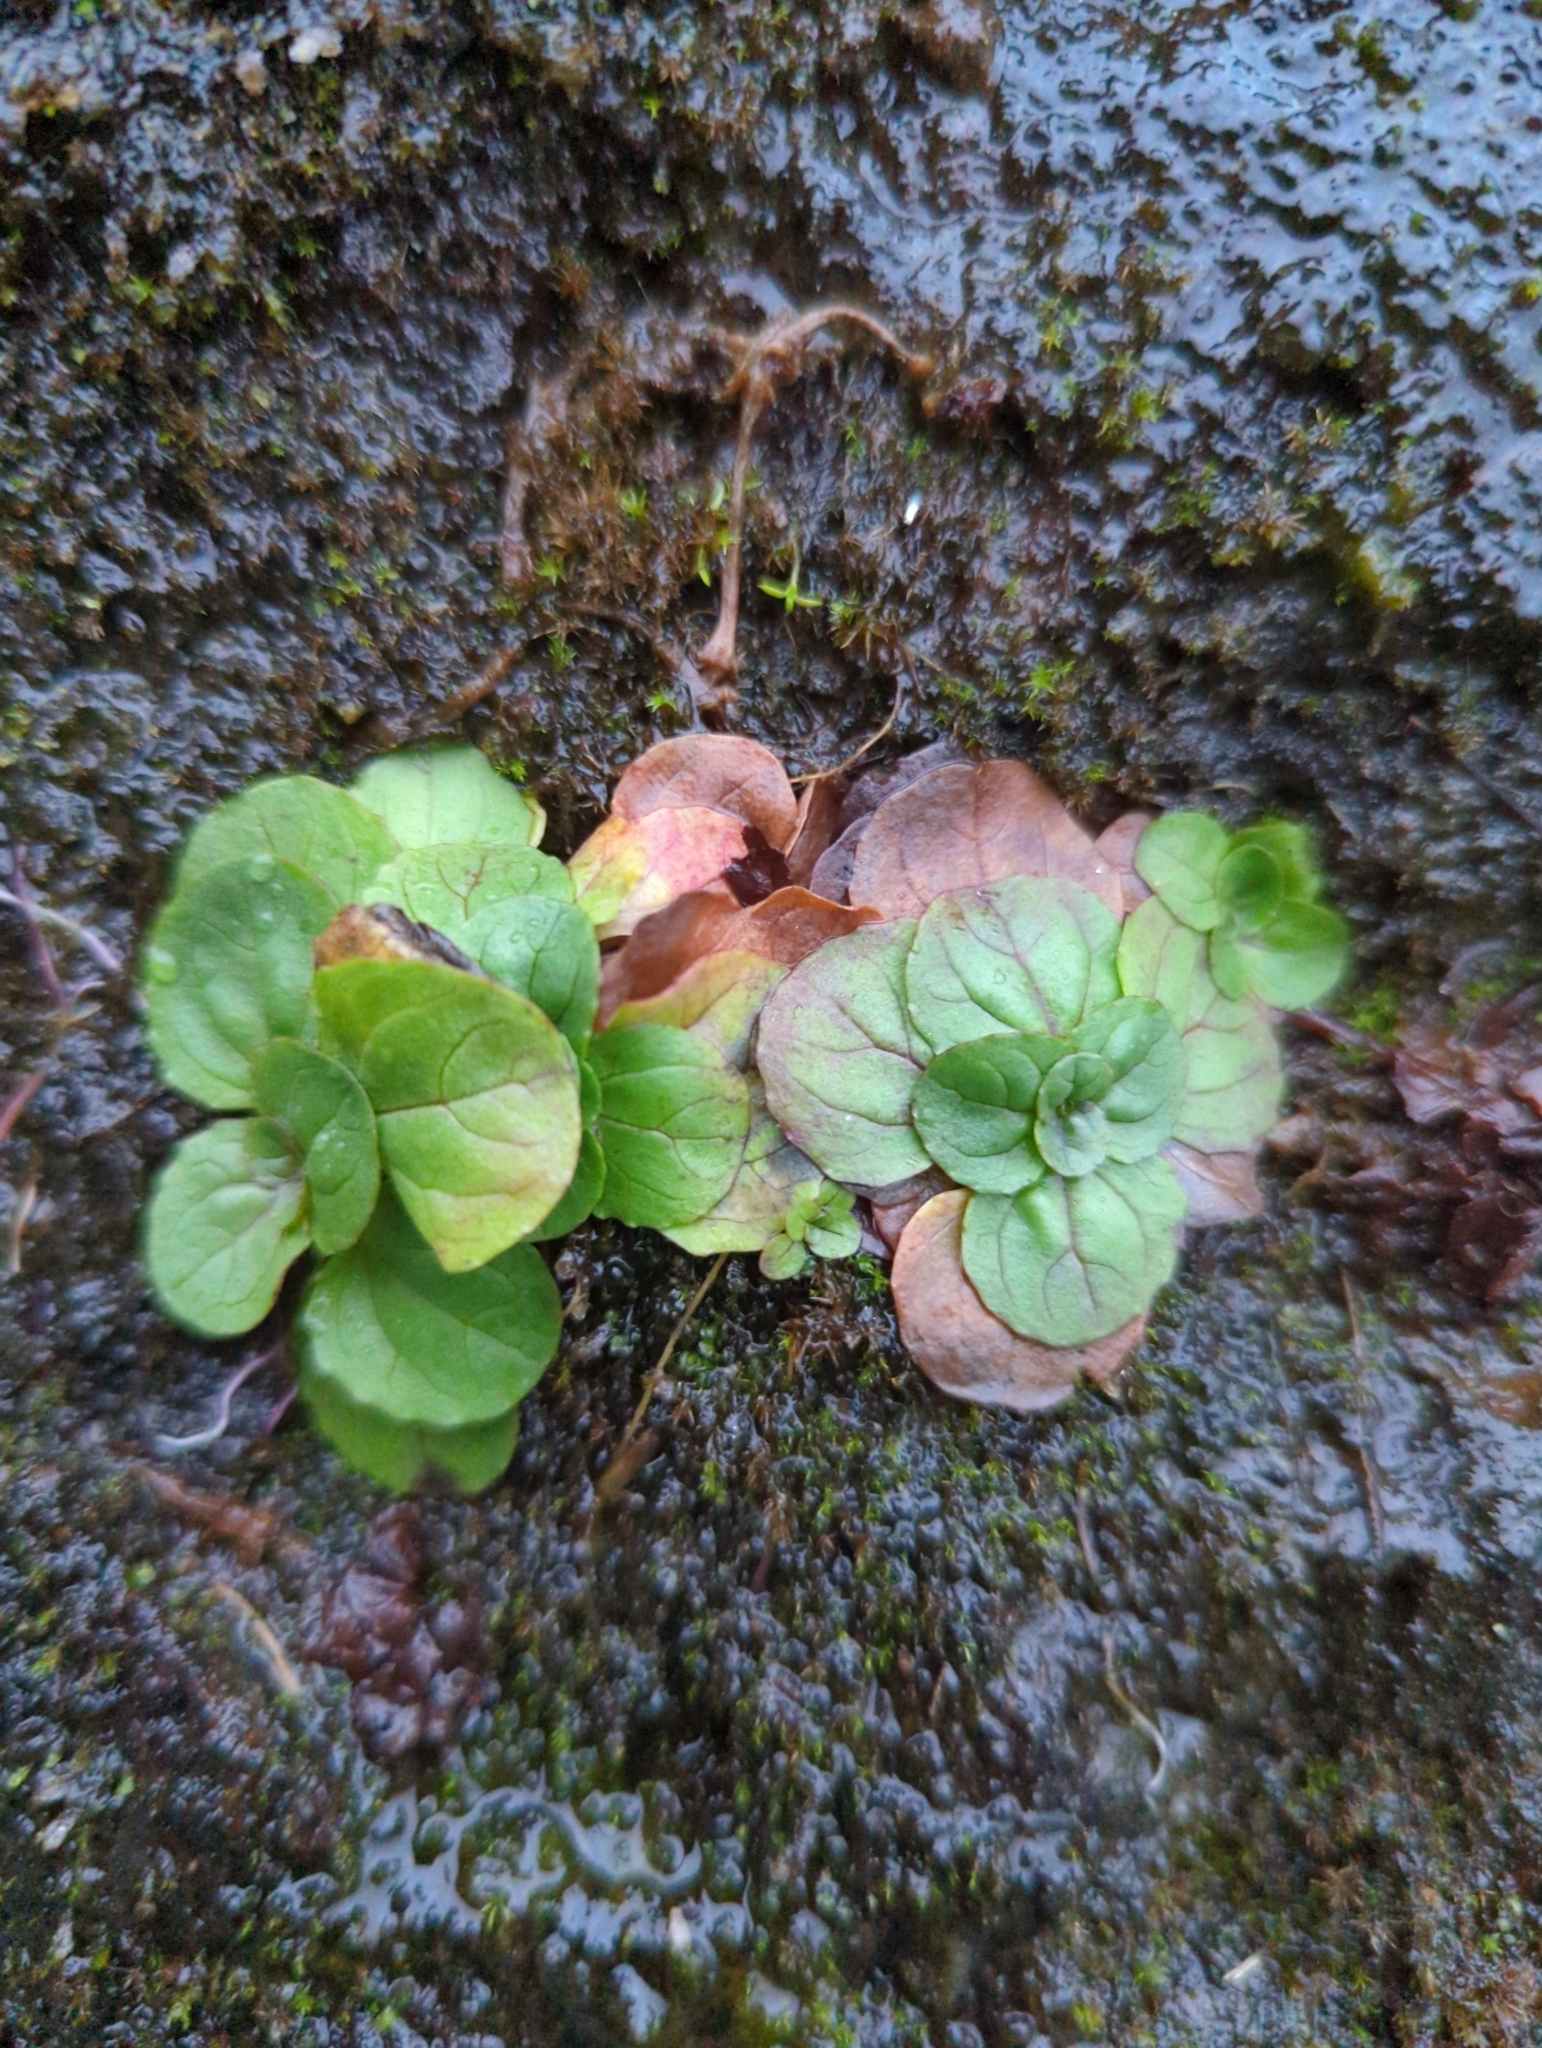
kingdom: Plantae
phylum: Tracheophyta
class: Magnoliopsida
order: Lamiales
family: Phrymaceae
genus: Erythranthe
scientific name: Erythranthe grandis
